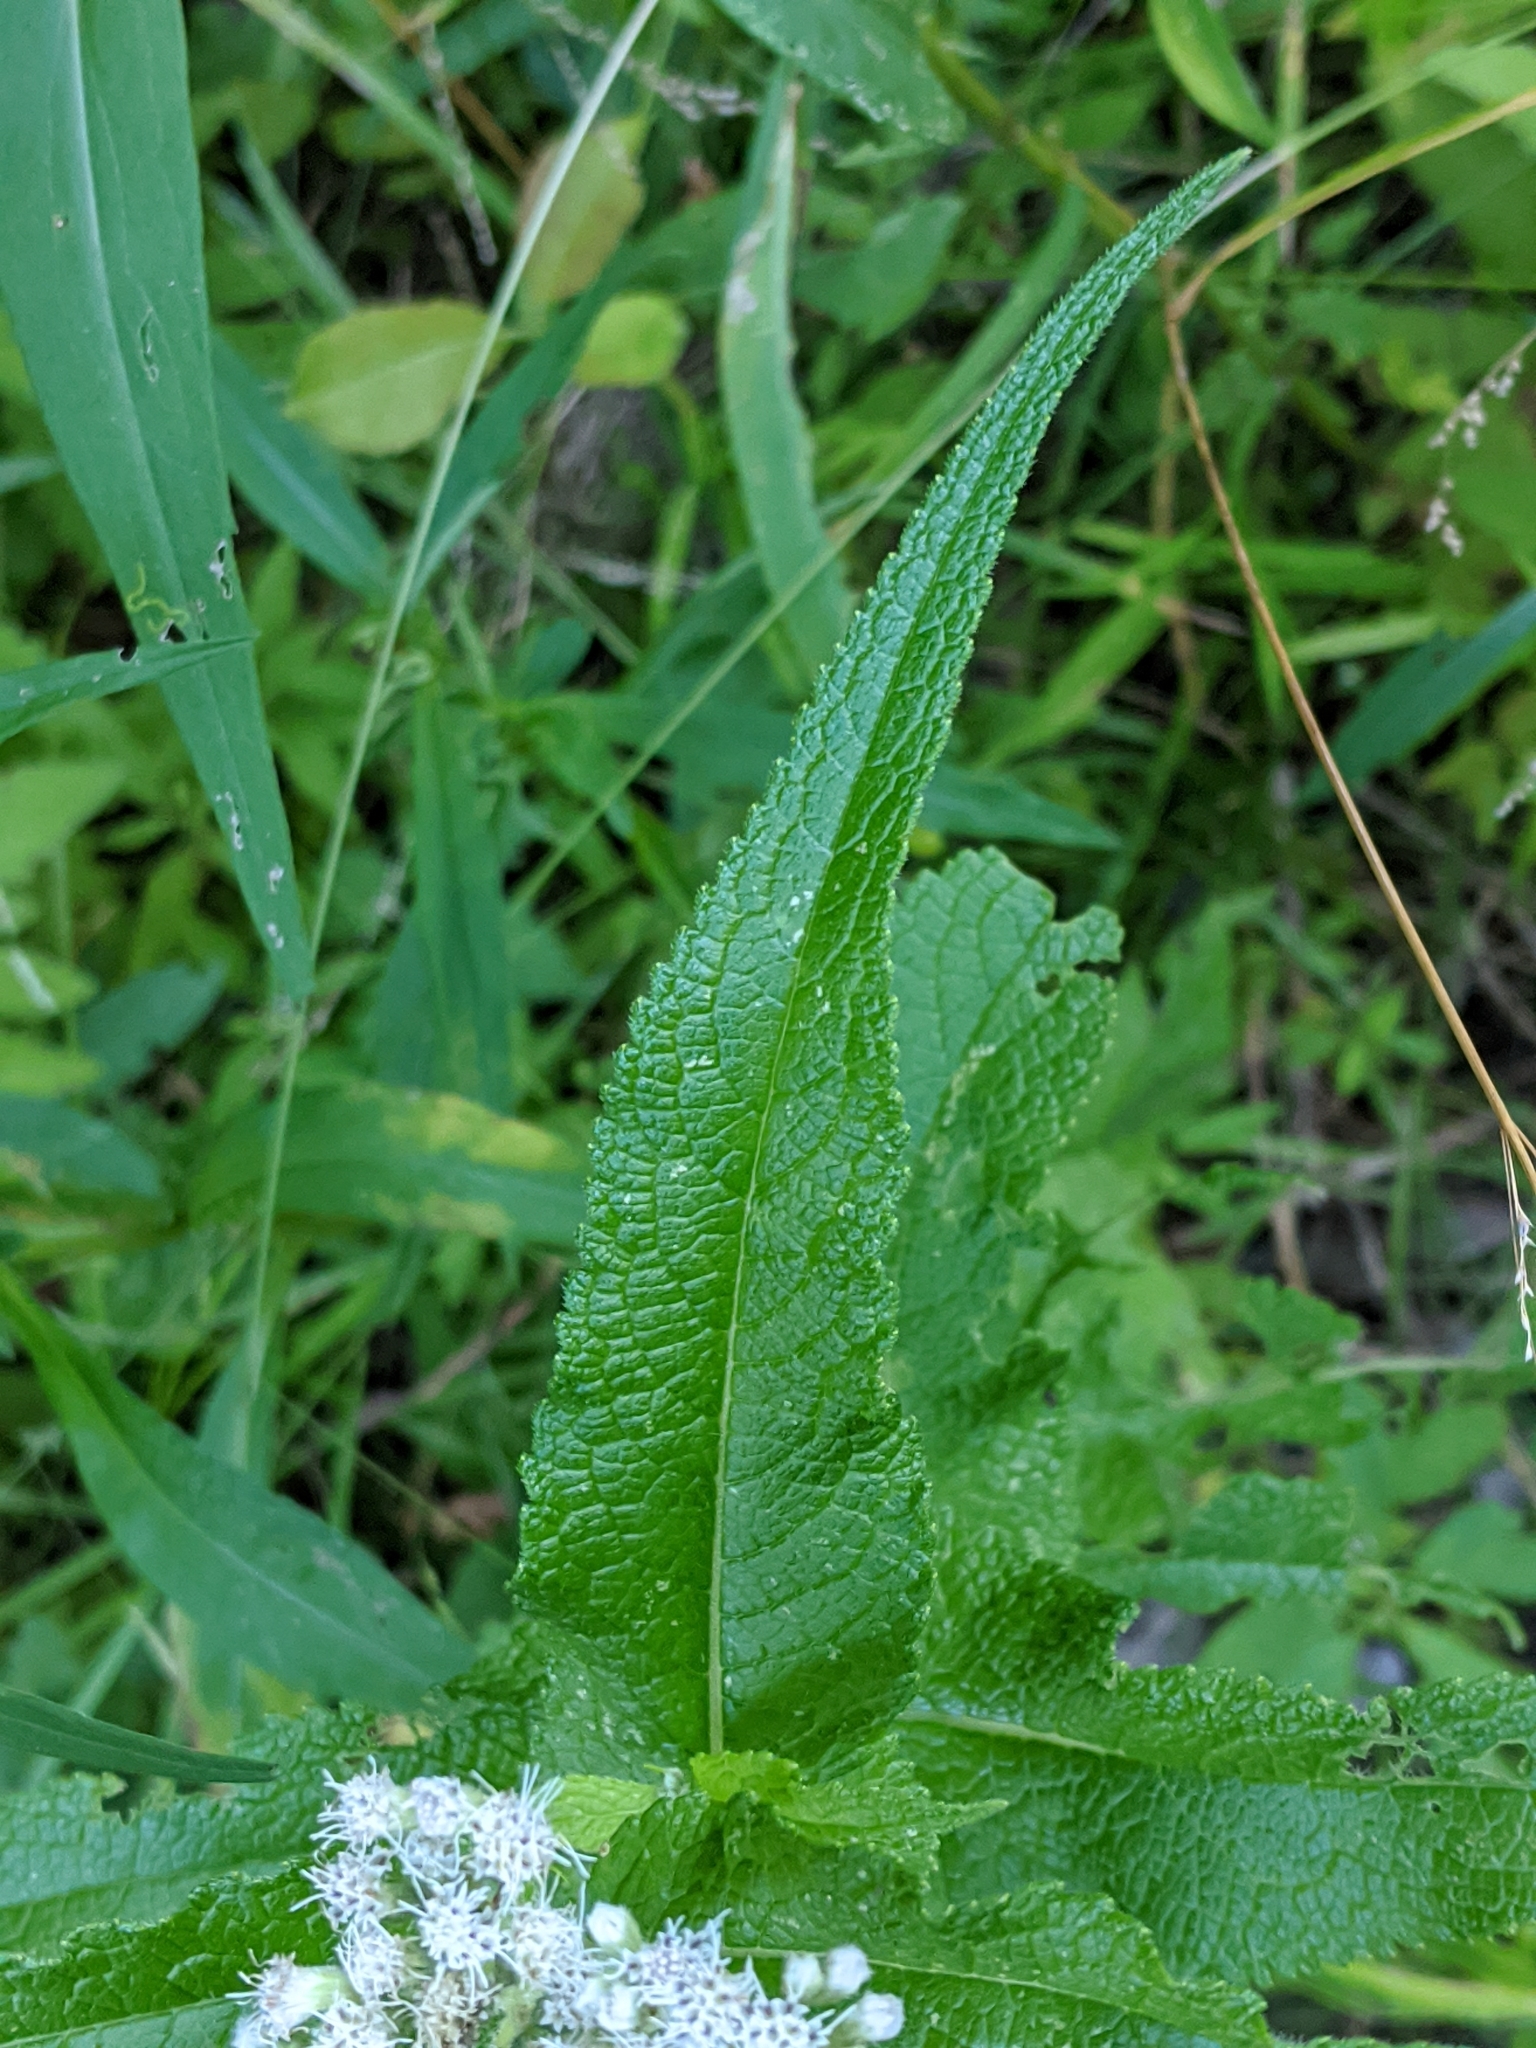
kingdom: Plantae
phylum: Tracheophyta
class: Magnoliopsida
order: Asterales
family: Asteraceae
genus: Eupatorium
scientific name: Eupatorium perfoliatum
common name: Boneset
